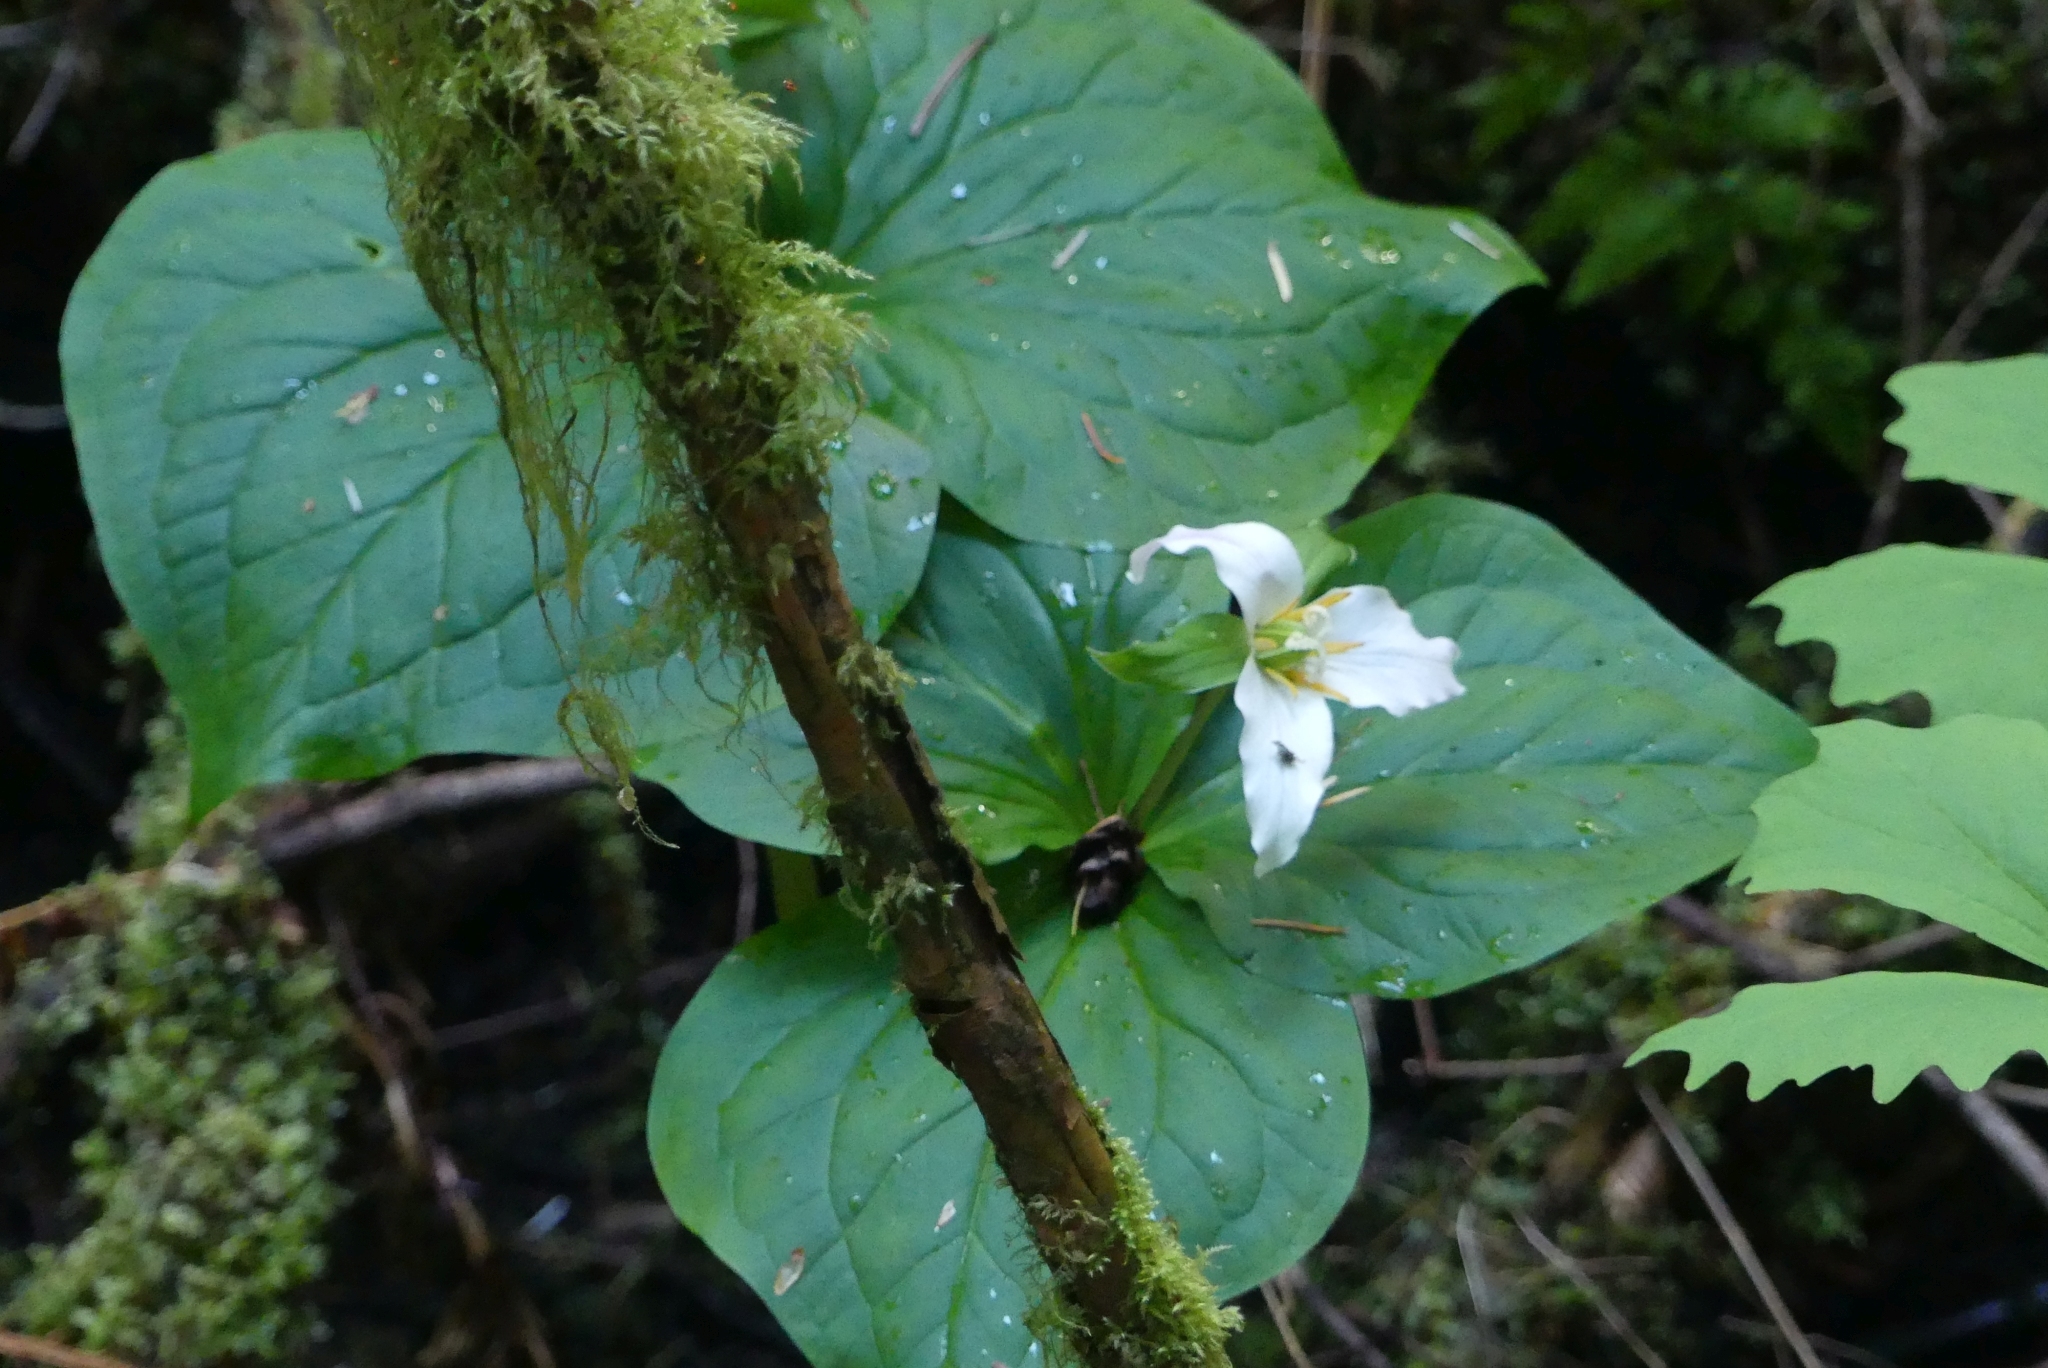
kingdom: Plantae
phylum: Tracheophyta
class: Liliopsida
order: Liliales
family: Melanthiaceae
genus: Trillium
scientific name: Trillium ovatum
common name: Pacific trillium
